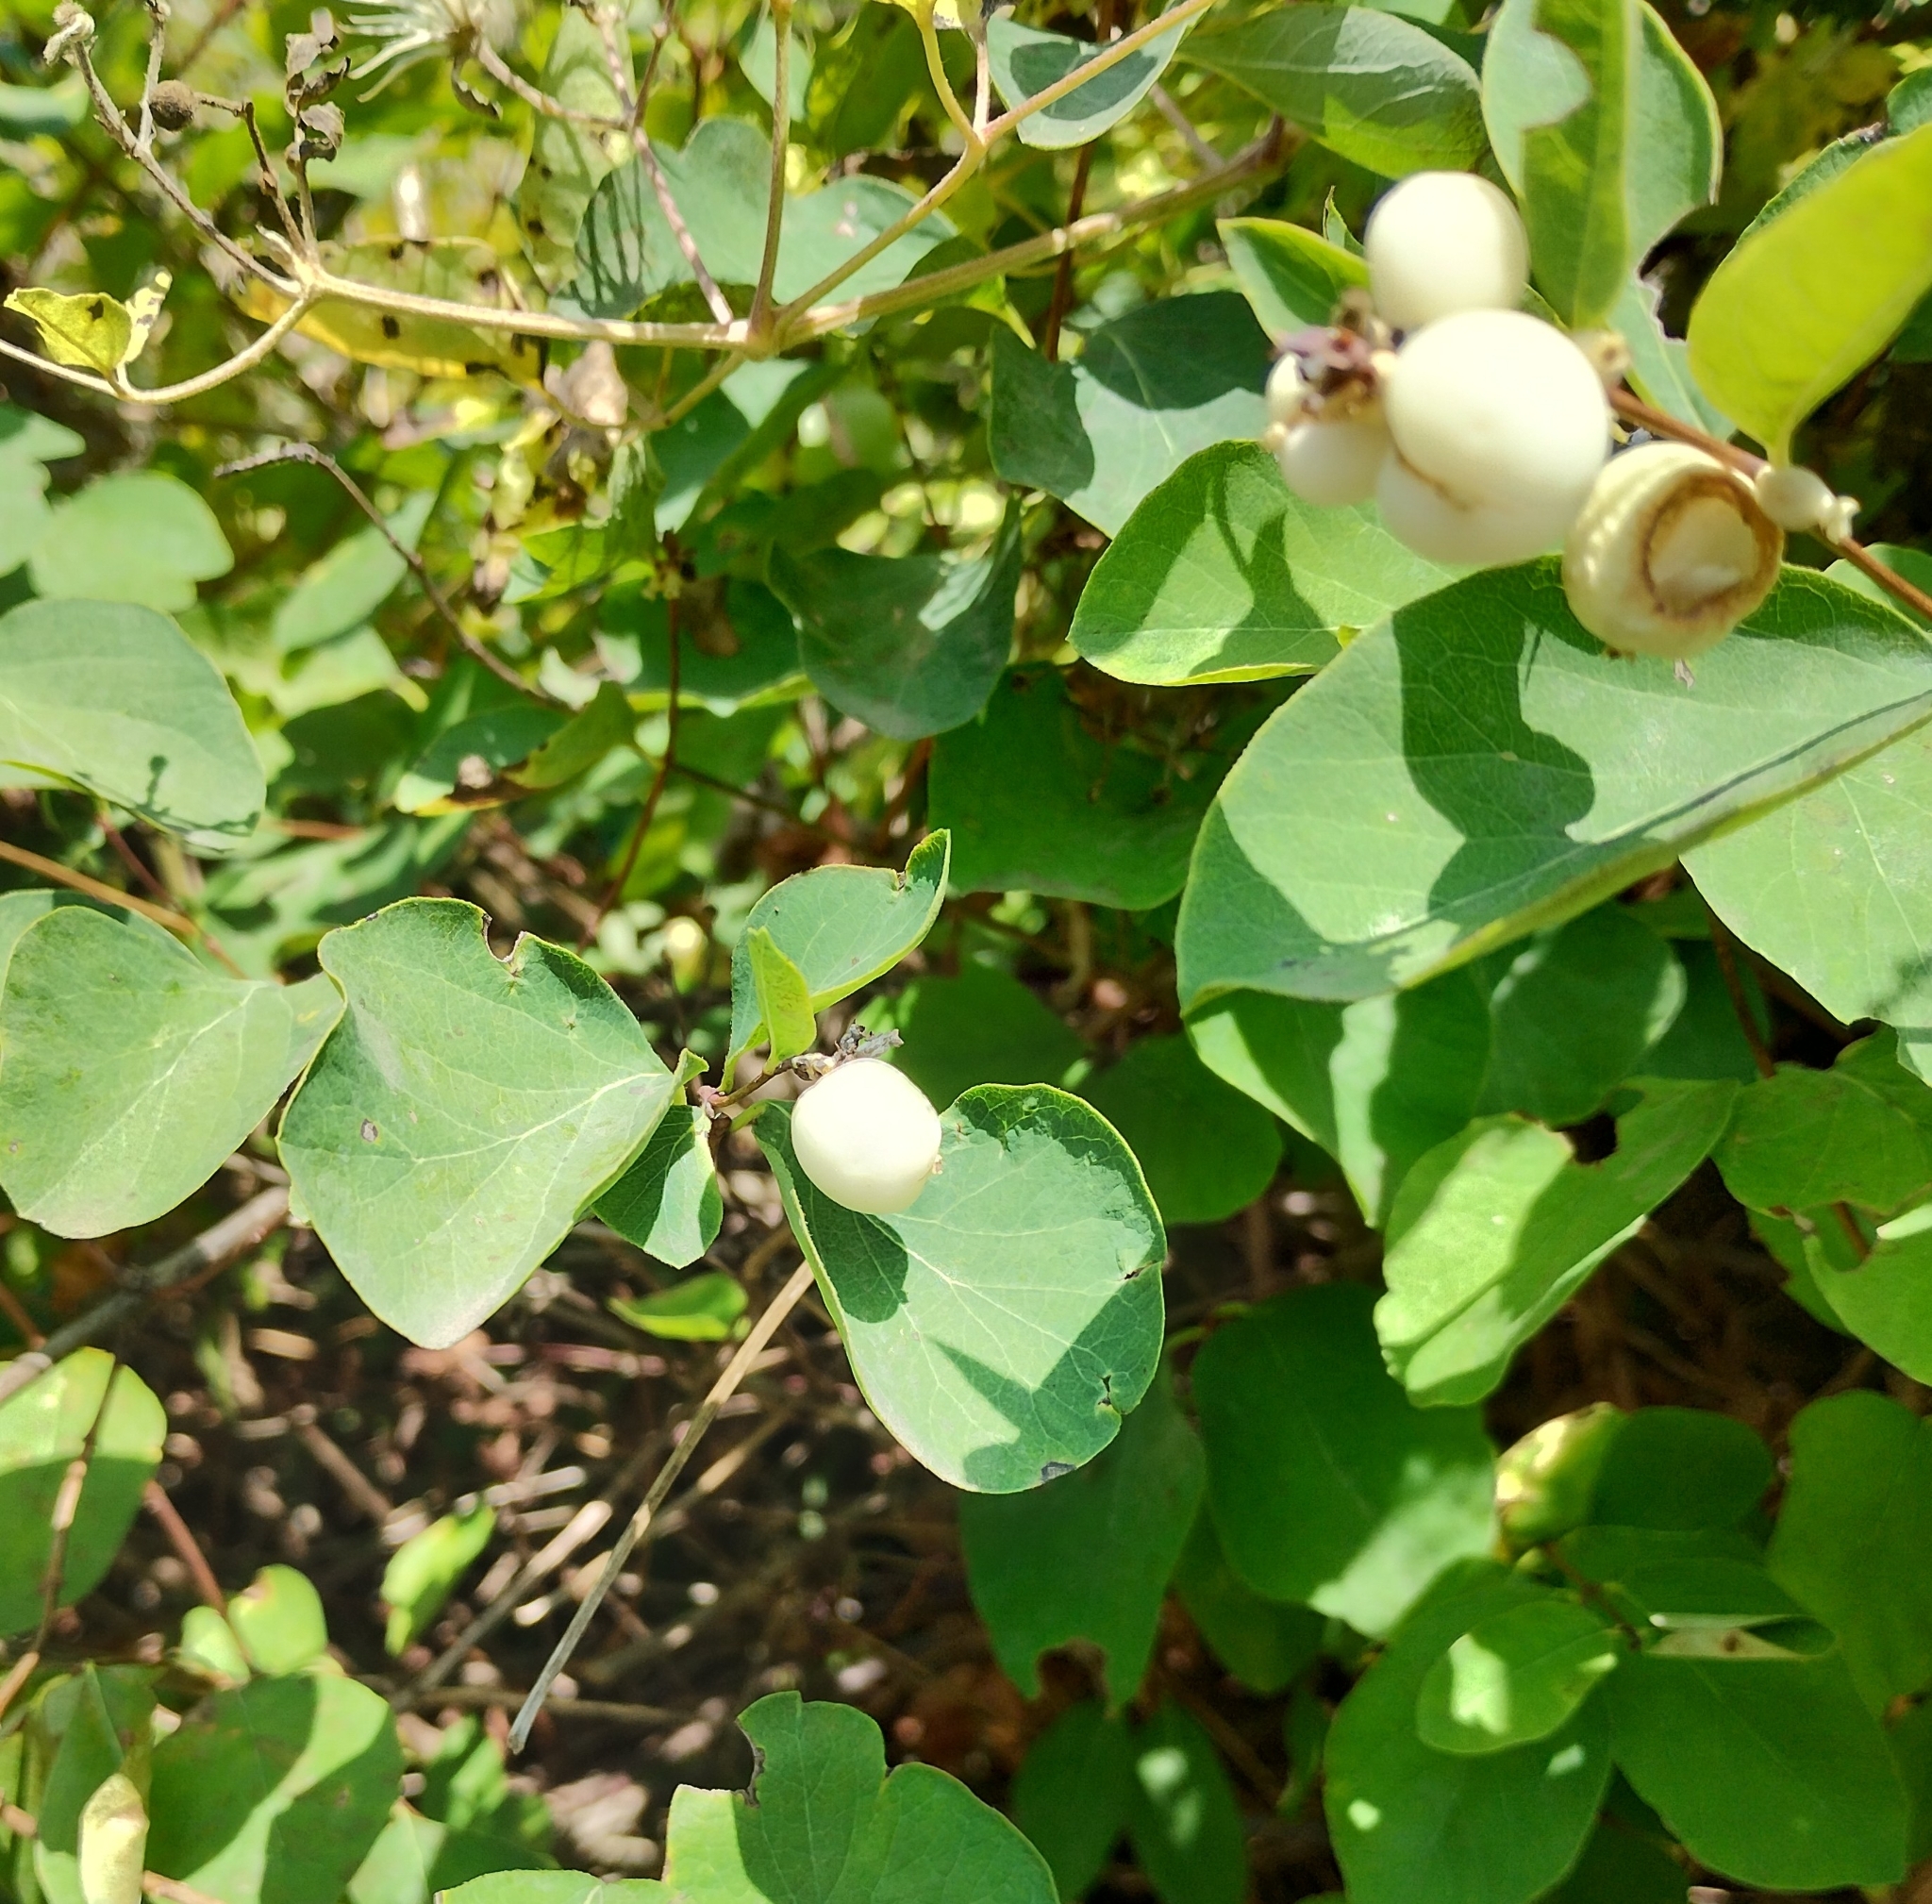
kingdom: Plantae
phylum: Tracheophyta
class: Magnoliopsida
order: Dipsacales
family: Caprifoliaceae
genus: Symphoricarpos
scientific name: Symphoricarpos albus
